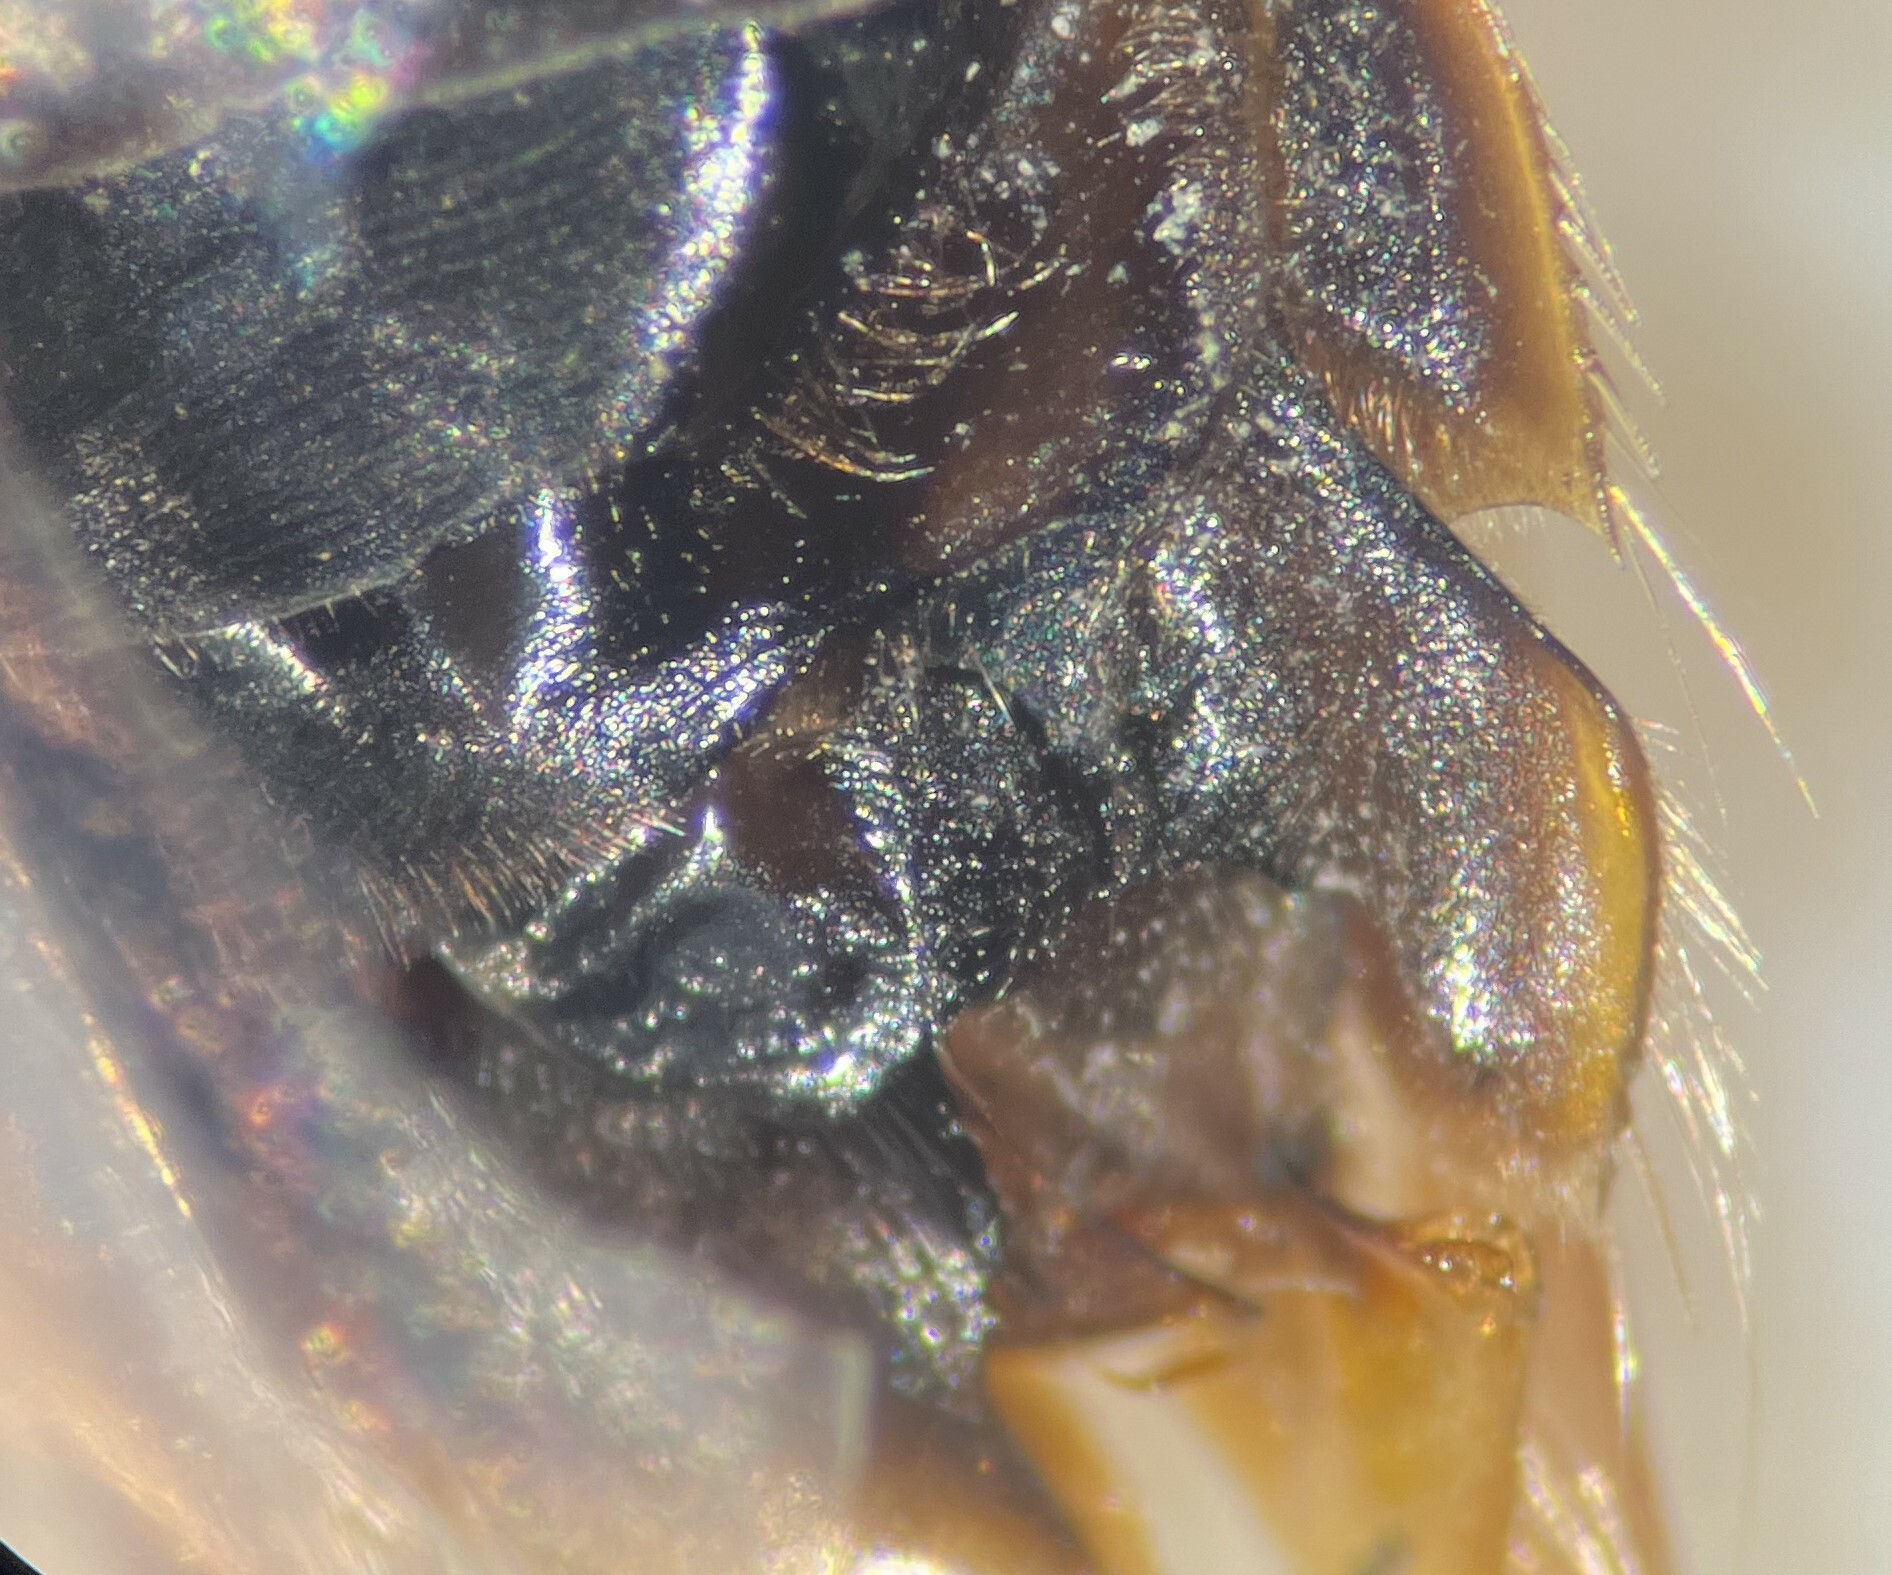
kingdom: Animalia
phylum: Arthropoda
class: Insecta
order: Hemiptera
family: Corixidae
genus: Morphocorixa
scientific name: Morphocorixa compacta
